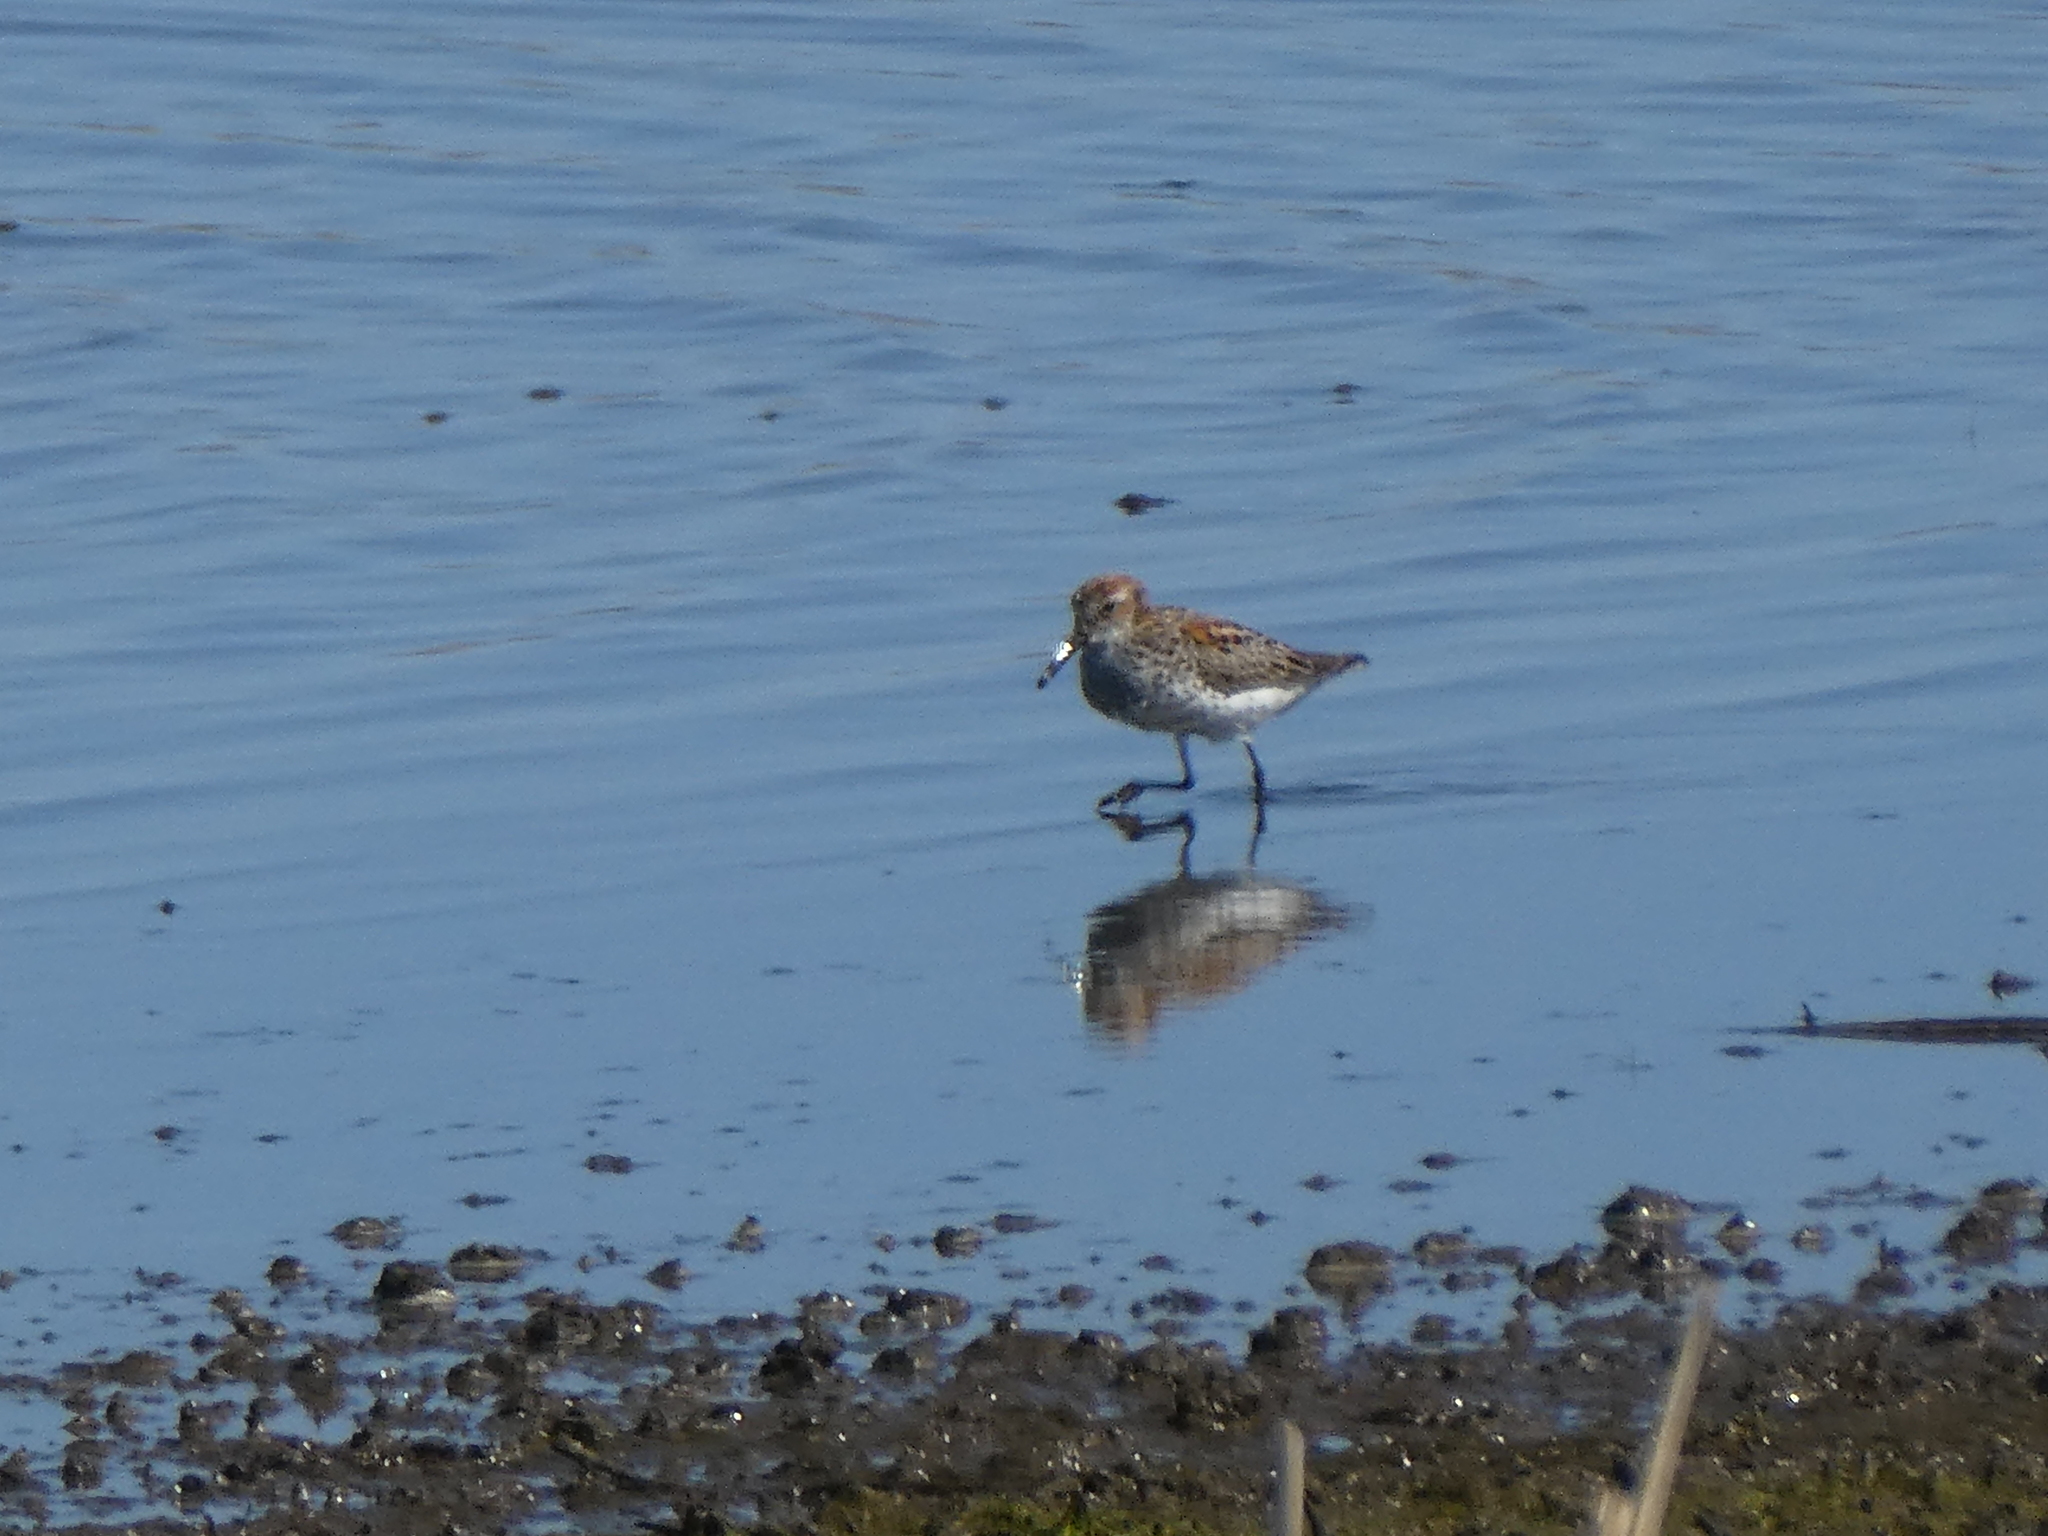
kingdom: Animalia
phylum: Chordata
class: Aves
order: Charadriiformes
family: Scolopacidae
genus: Calidris
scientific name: Calidris mauri
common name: Western sandpiper
